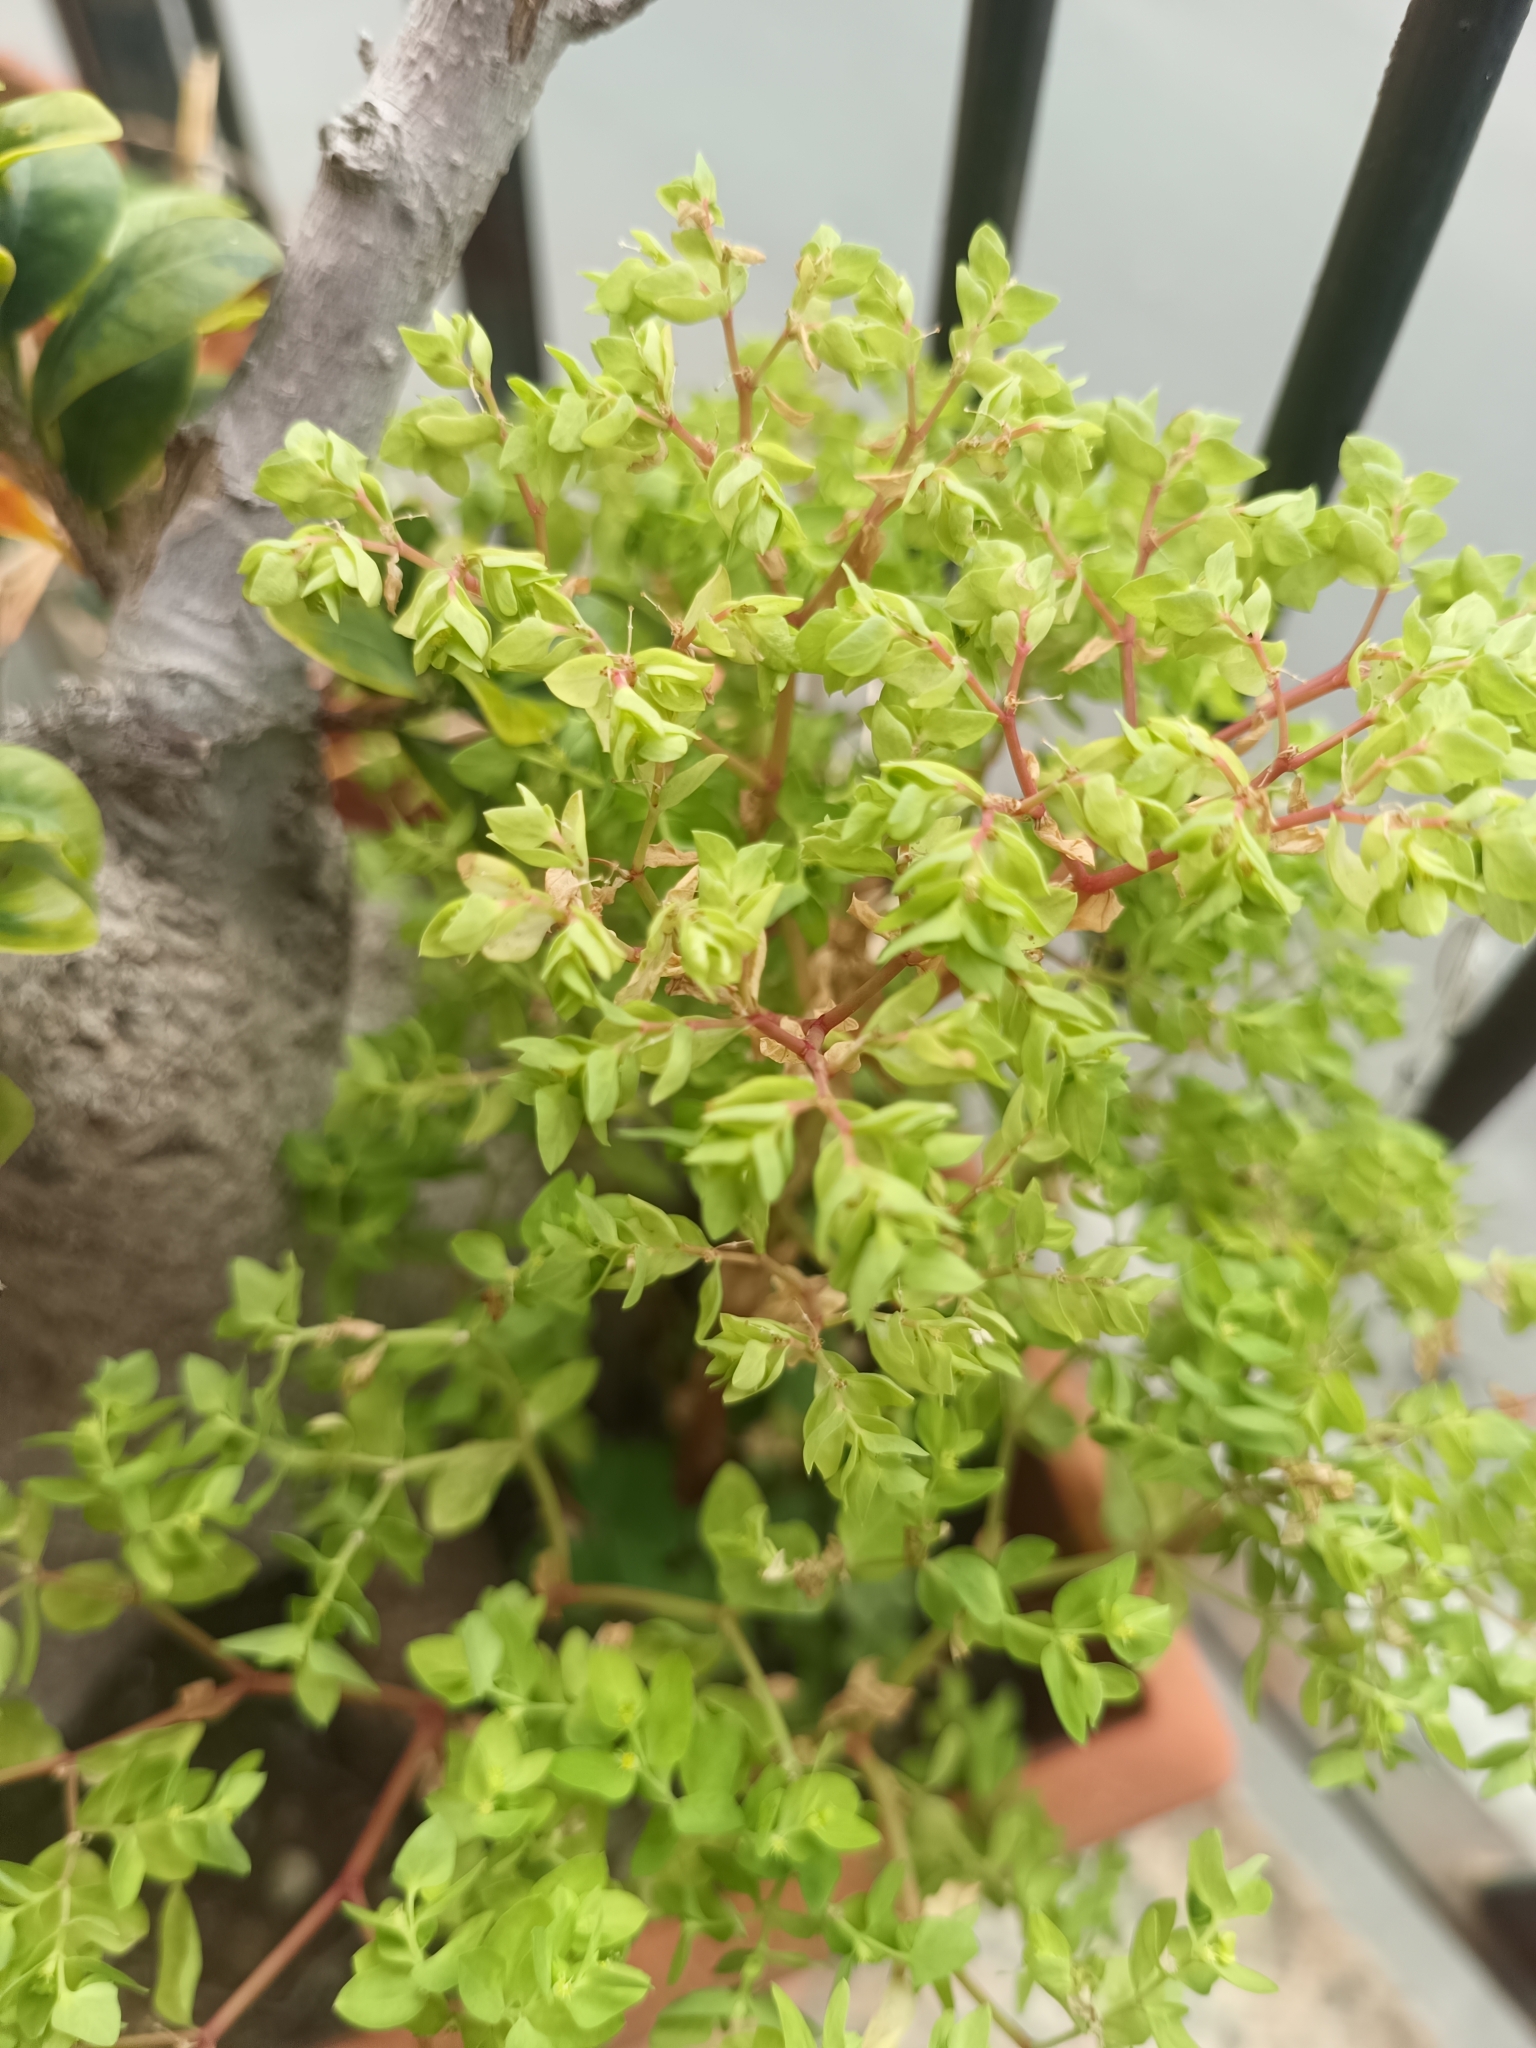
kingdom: Plantae
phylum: Tracheophyta
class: Magnoliopsida
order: Malpighiales
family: Euphorbiaceae
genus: Euphorbia
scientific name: Euphorbia peplus
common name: Petty spurge
